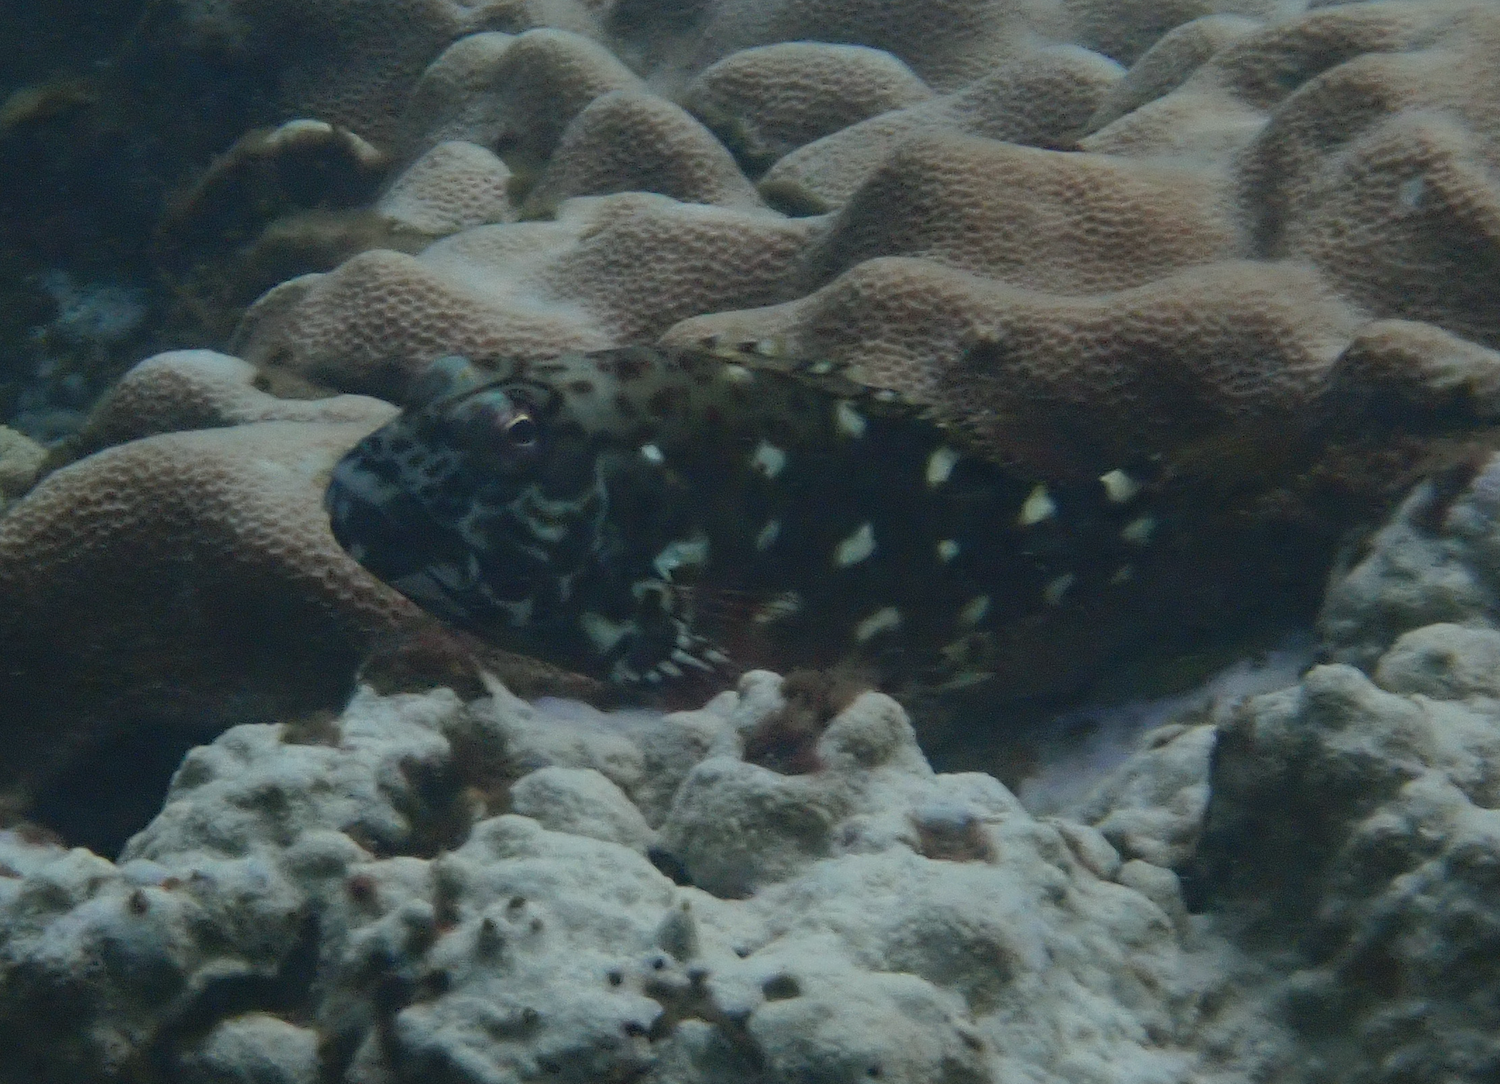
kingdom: Animalia
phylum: Chordata
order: Perciformes
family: Cirrhitidae
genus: Cirrhitus
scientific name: Cirrhitus pinnulatus
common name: Stocky hawkfish
